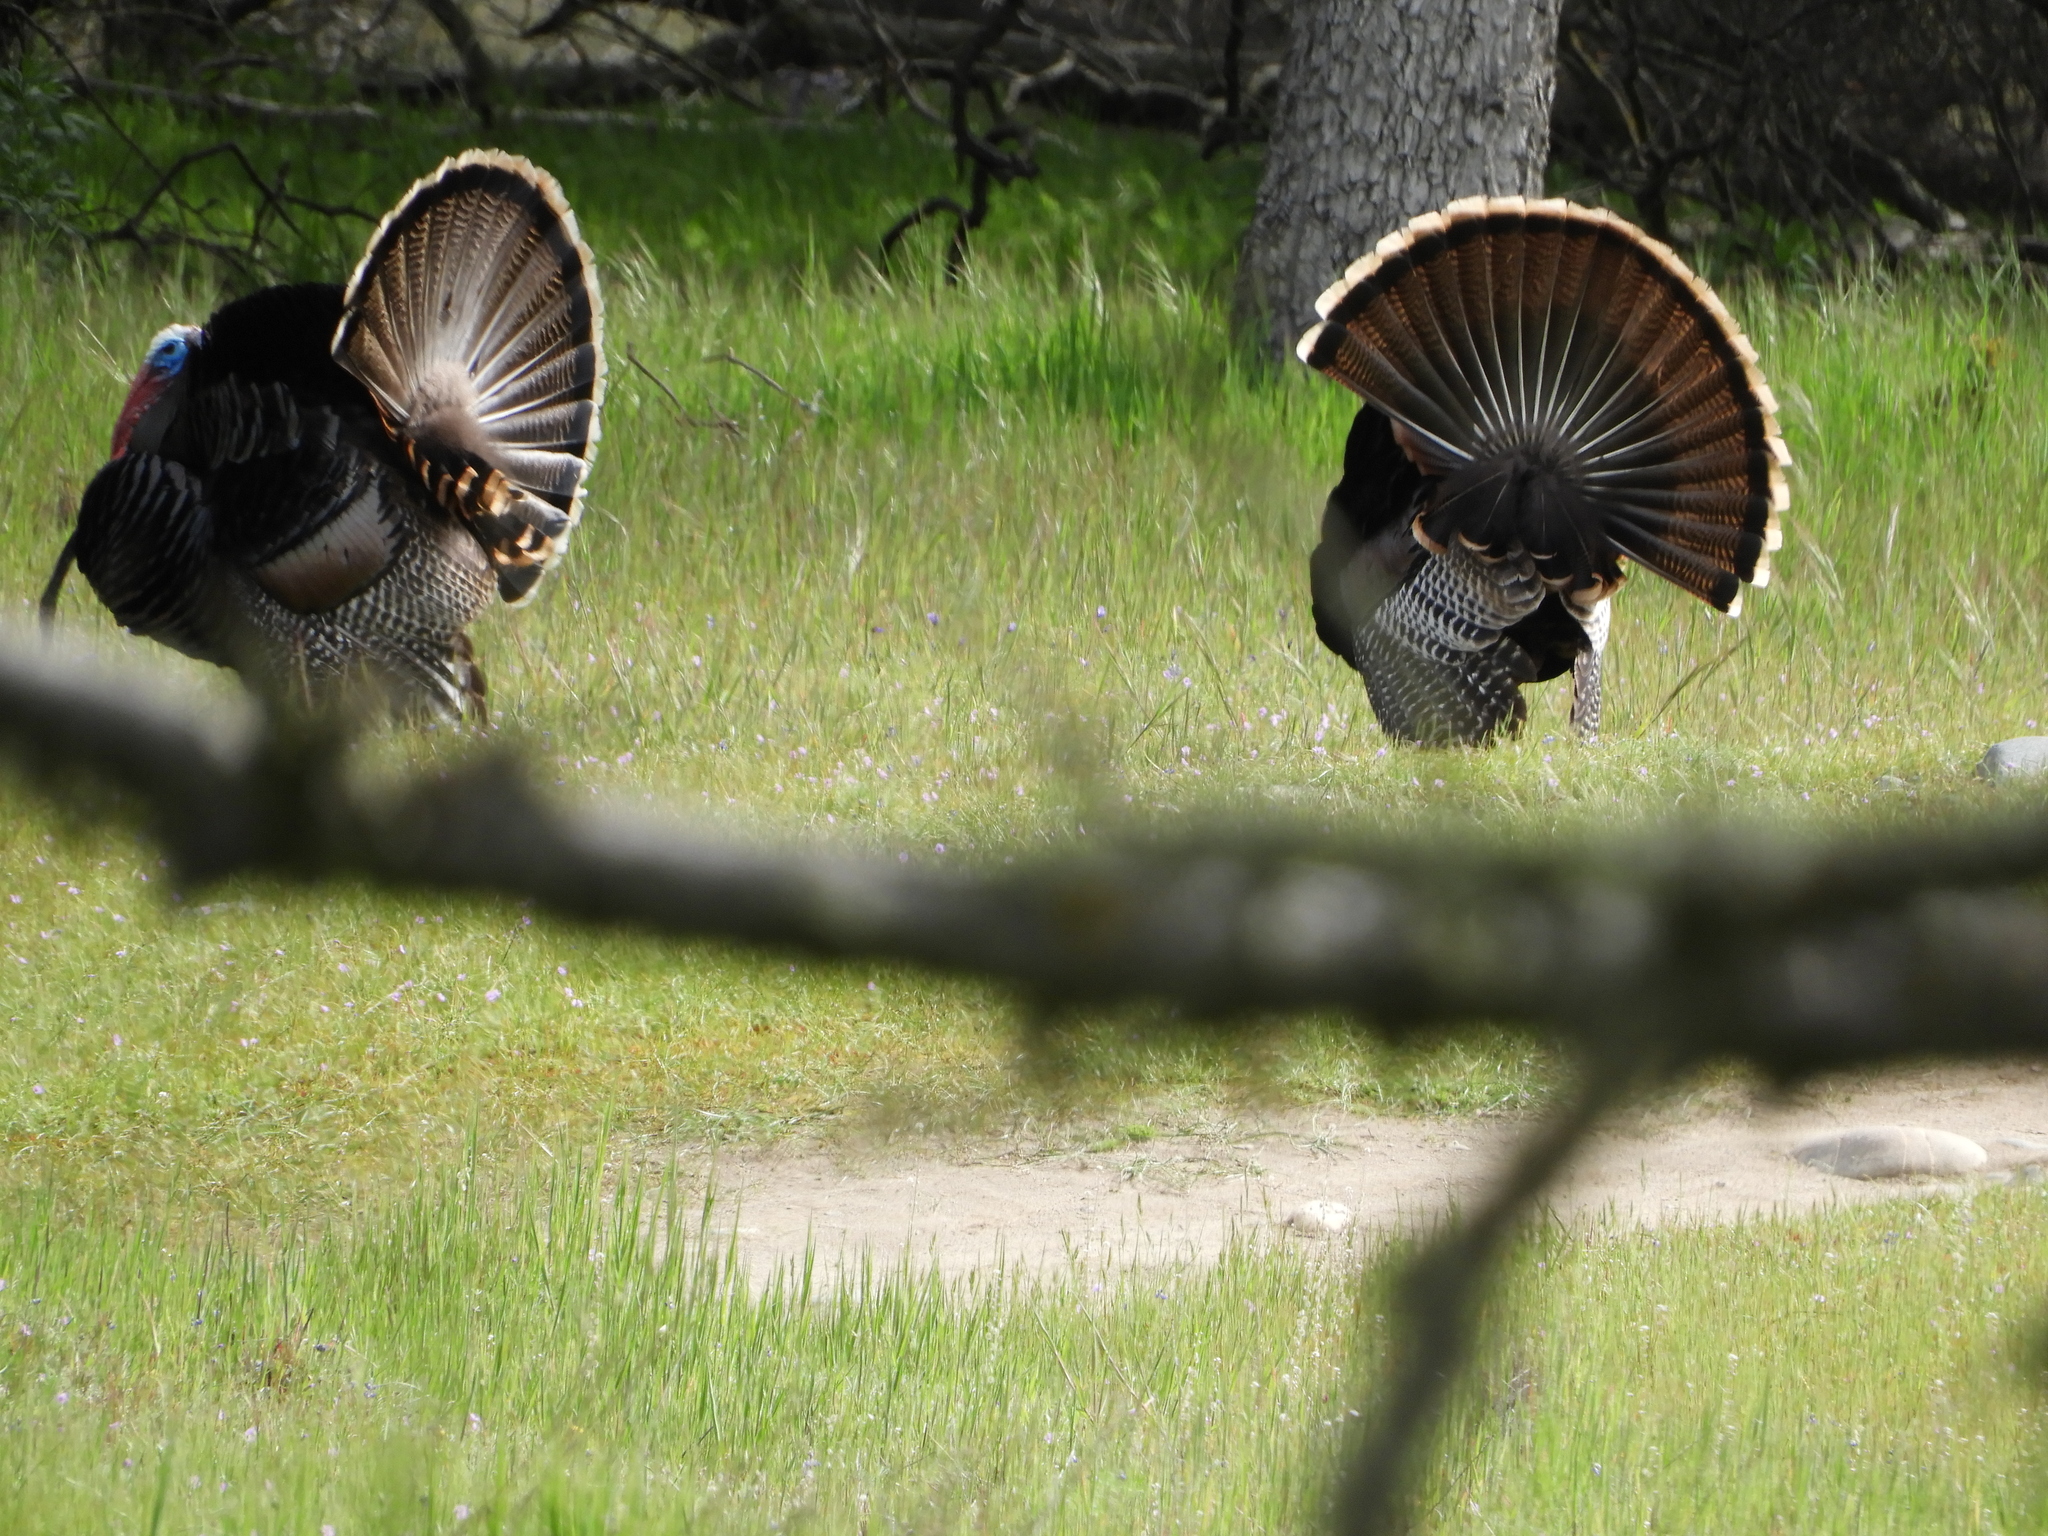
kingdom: Animalia
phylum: Chordata
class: Aves
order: Galliformes
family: Phasianidae
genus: Meleagris
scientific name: Meleagris gallopavo
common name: Wild turkey
